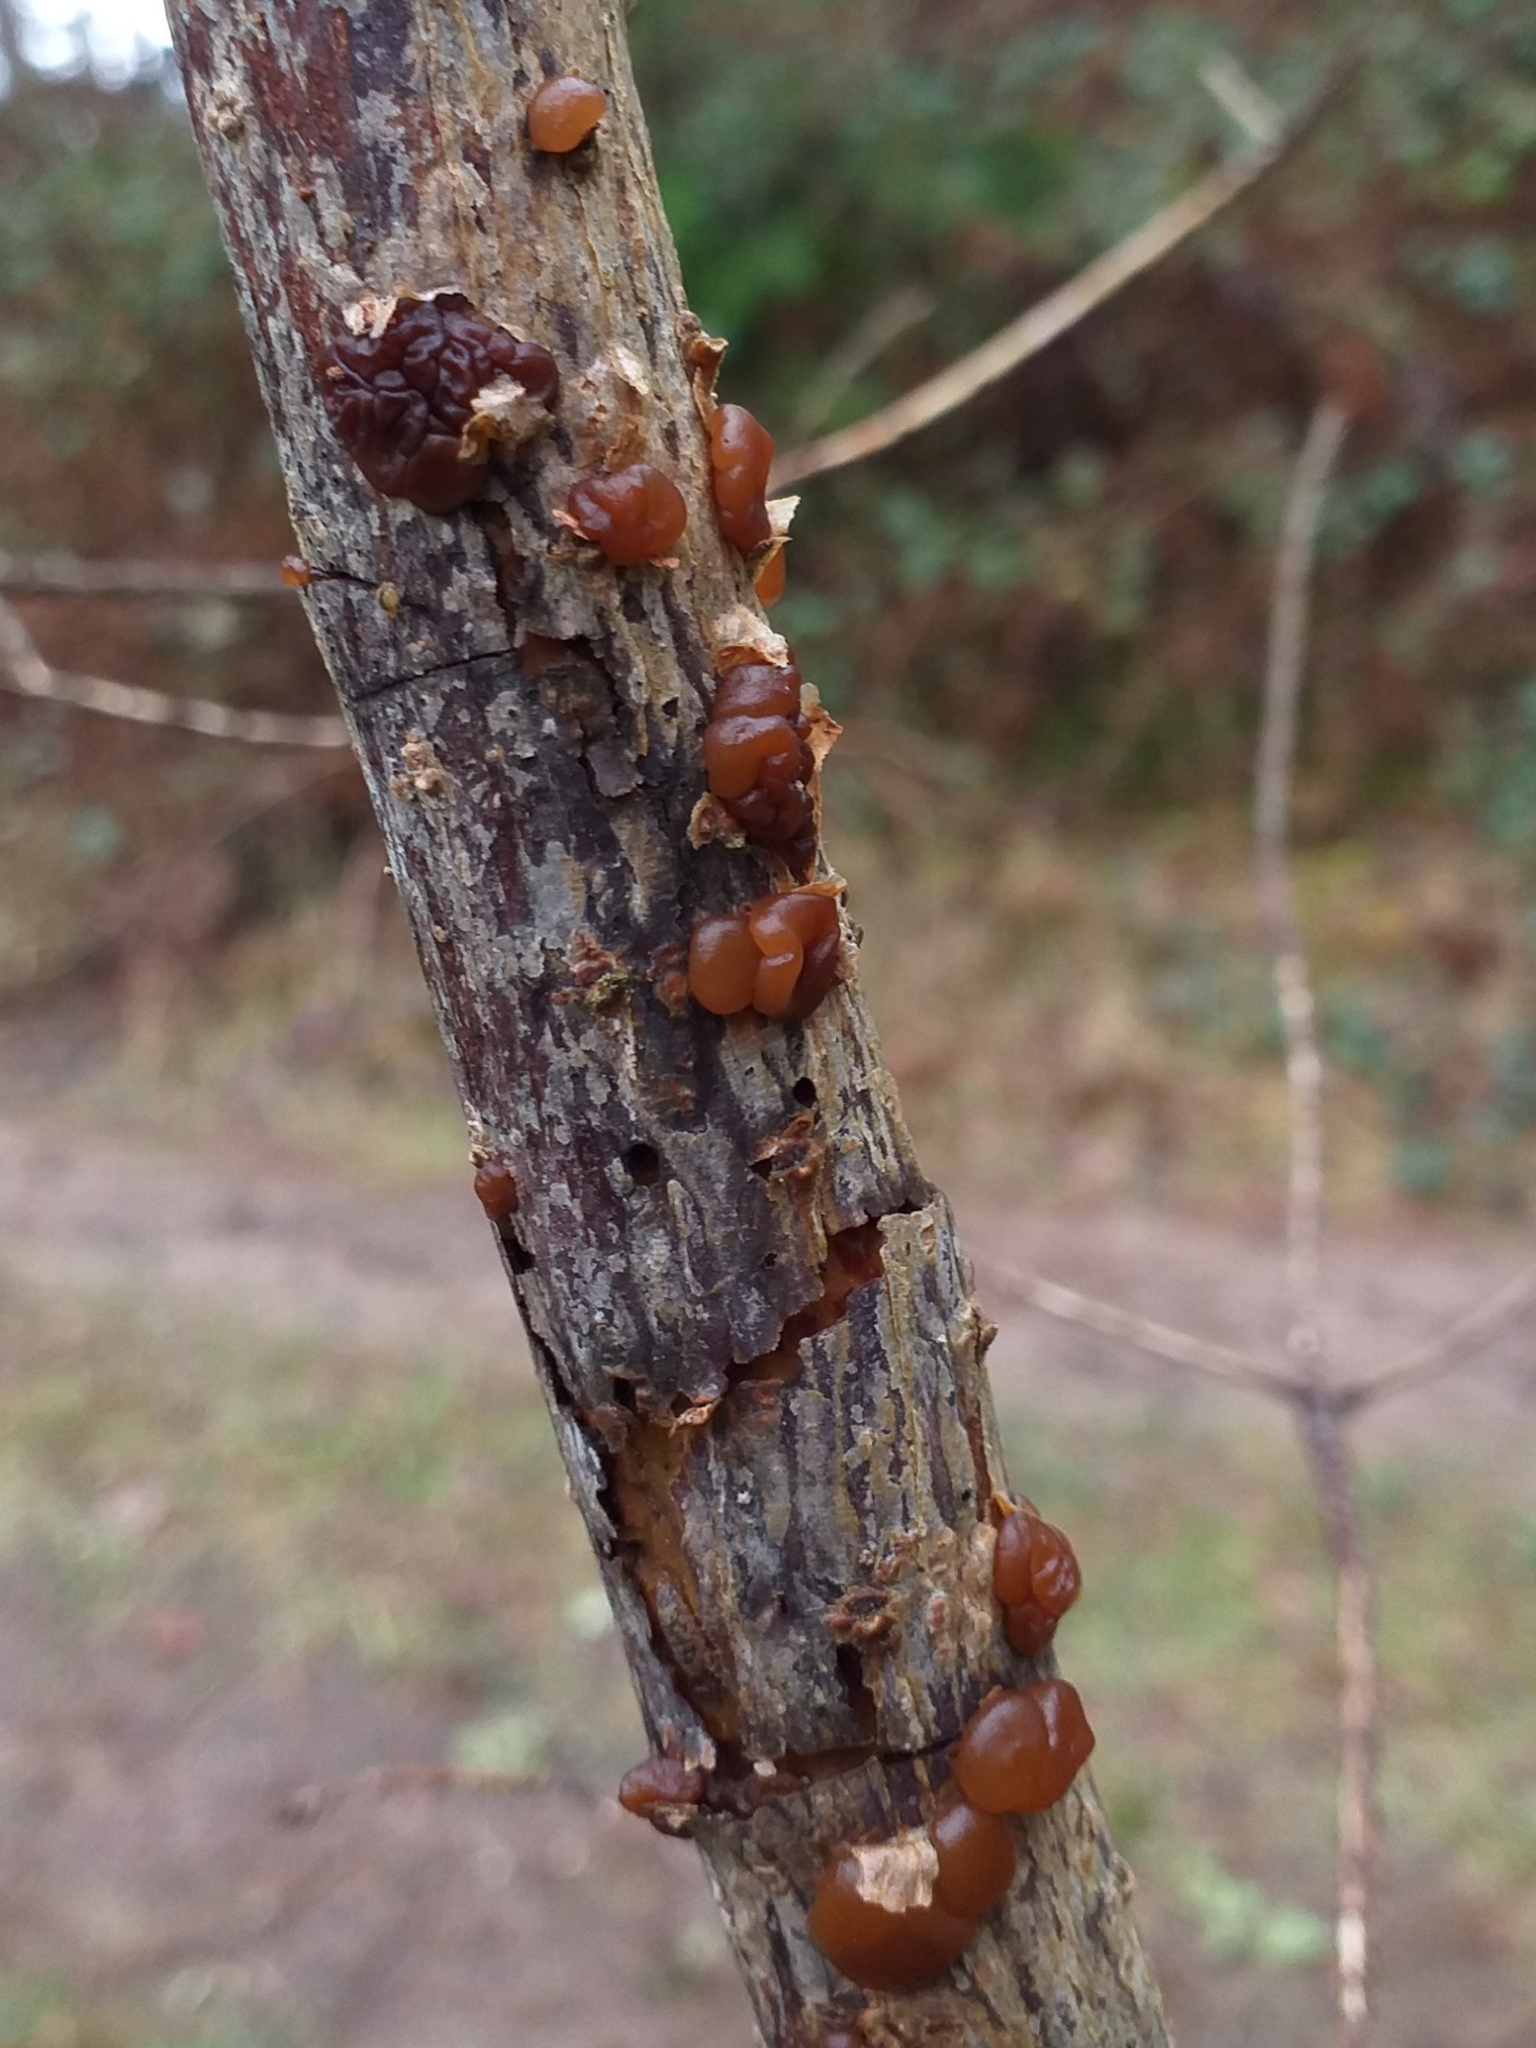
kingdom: Fungi
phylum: Basidiomycota
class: Agaricomycetes
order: Auriculariales
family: Auriculariaceae
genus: Exidia
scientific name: Exidia saccharina
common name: Pine jelly
